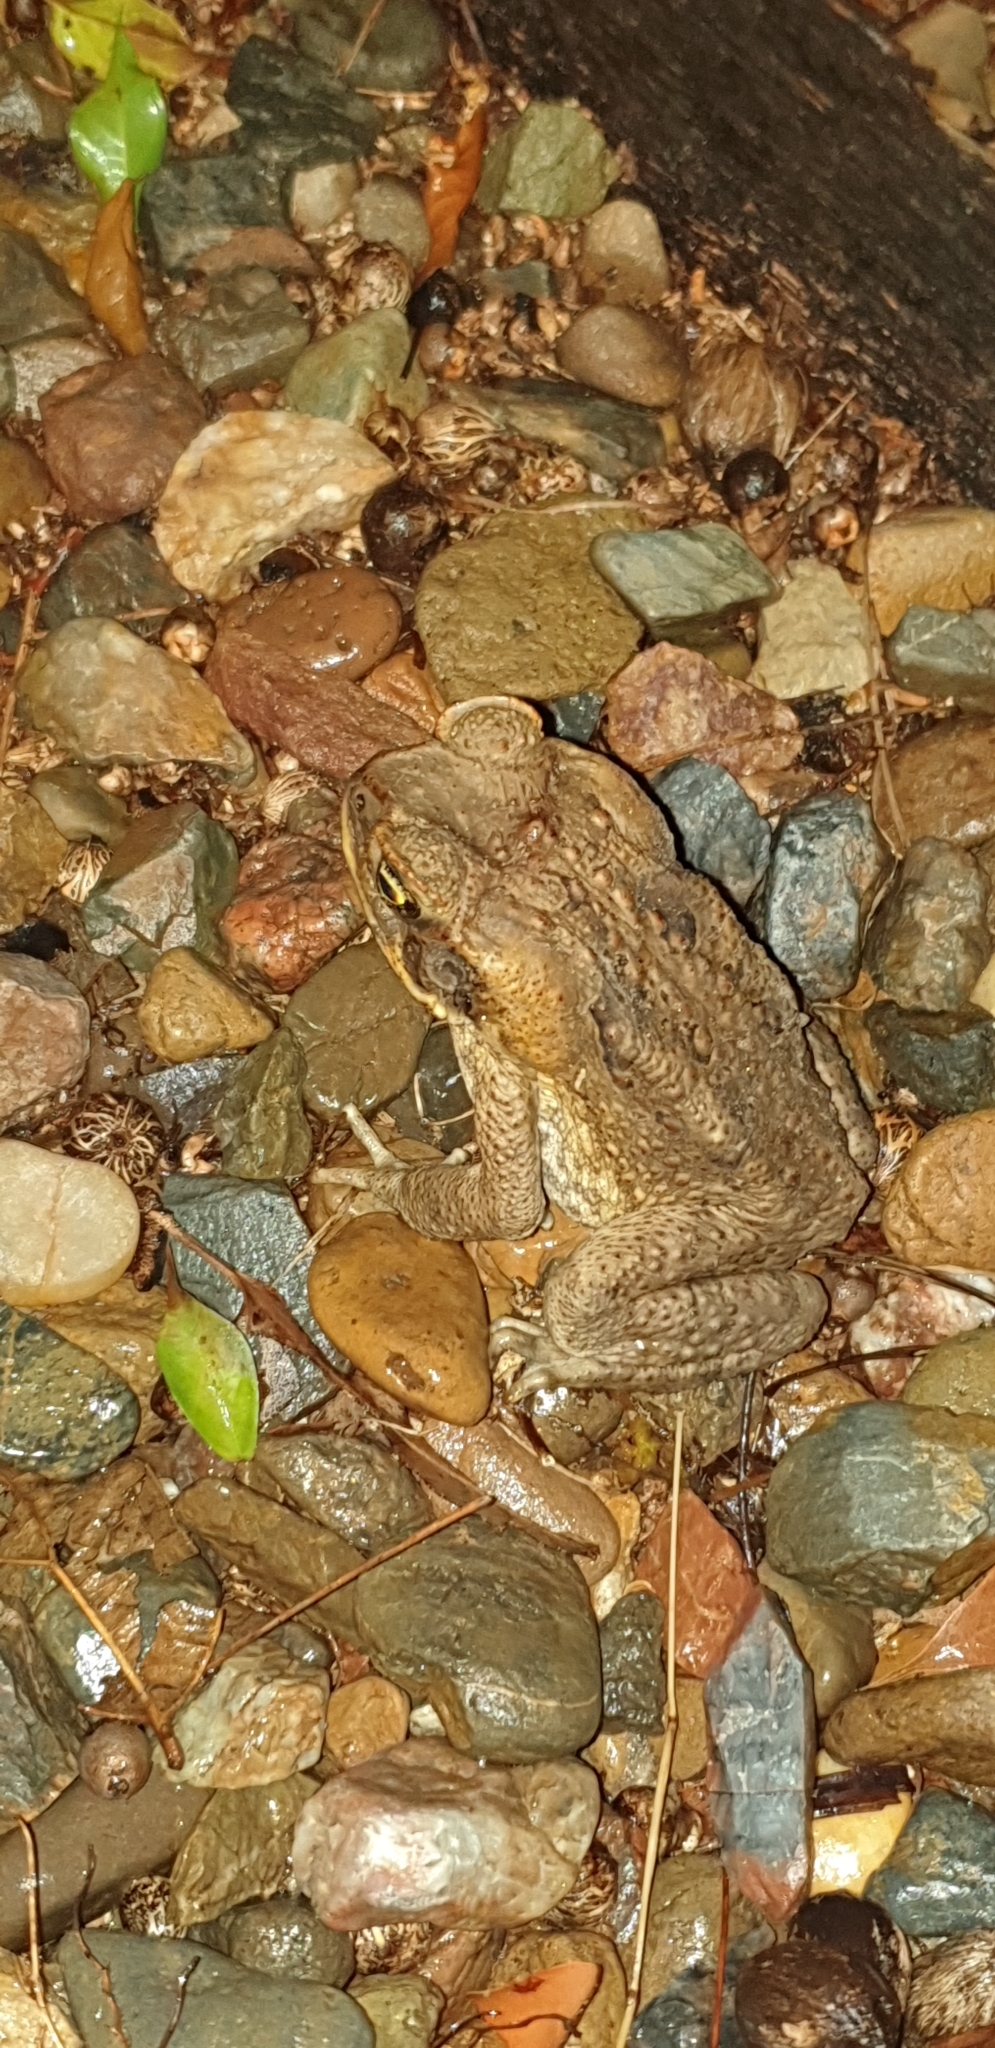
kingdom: Animalia
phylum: Chordata
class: Amphibia
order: Anura
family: Bufonidae
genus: Rhinella
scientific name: Rhinella marina
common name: Cane toad
